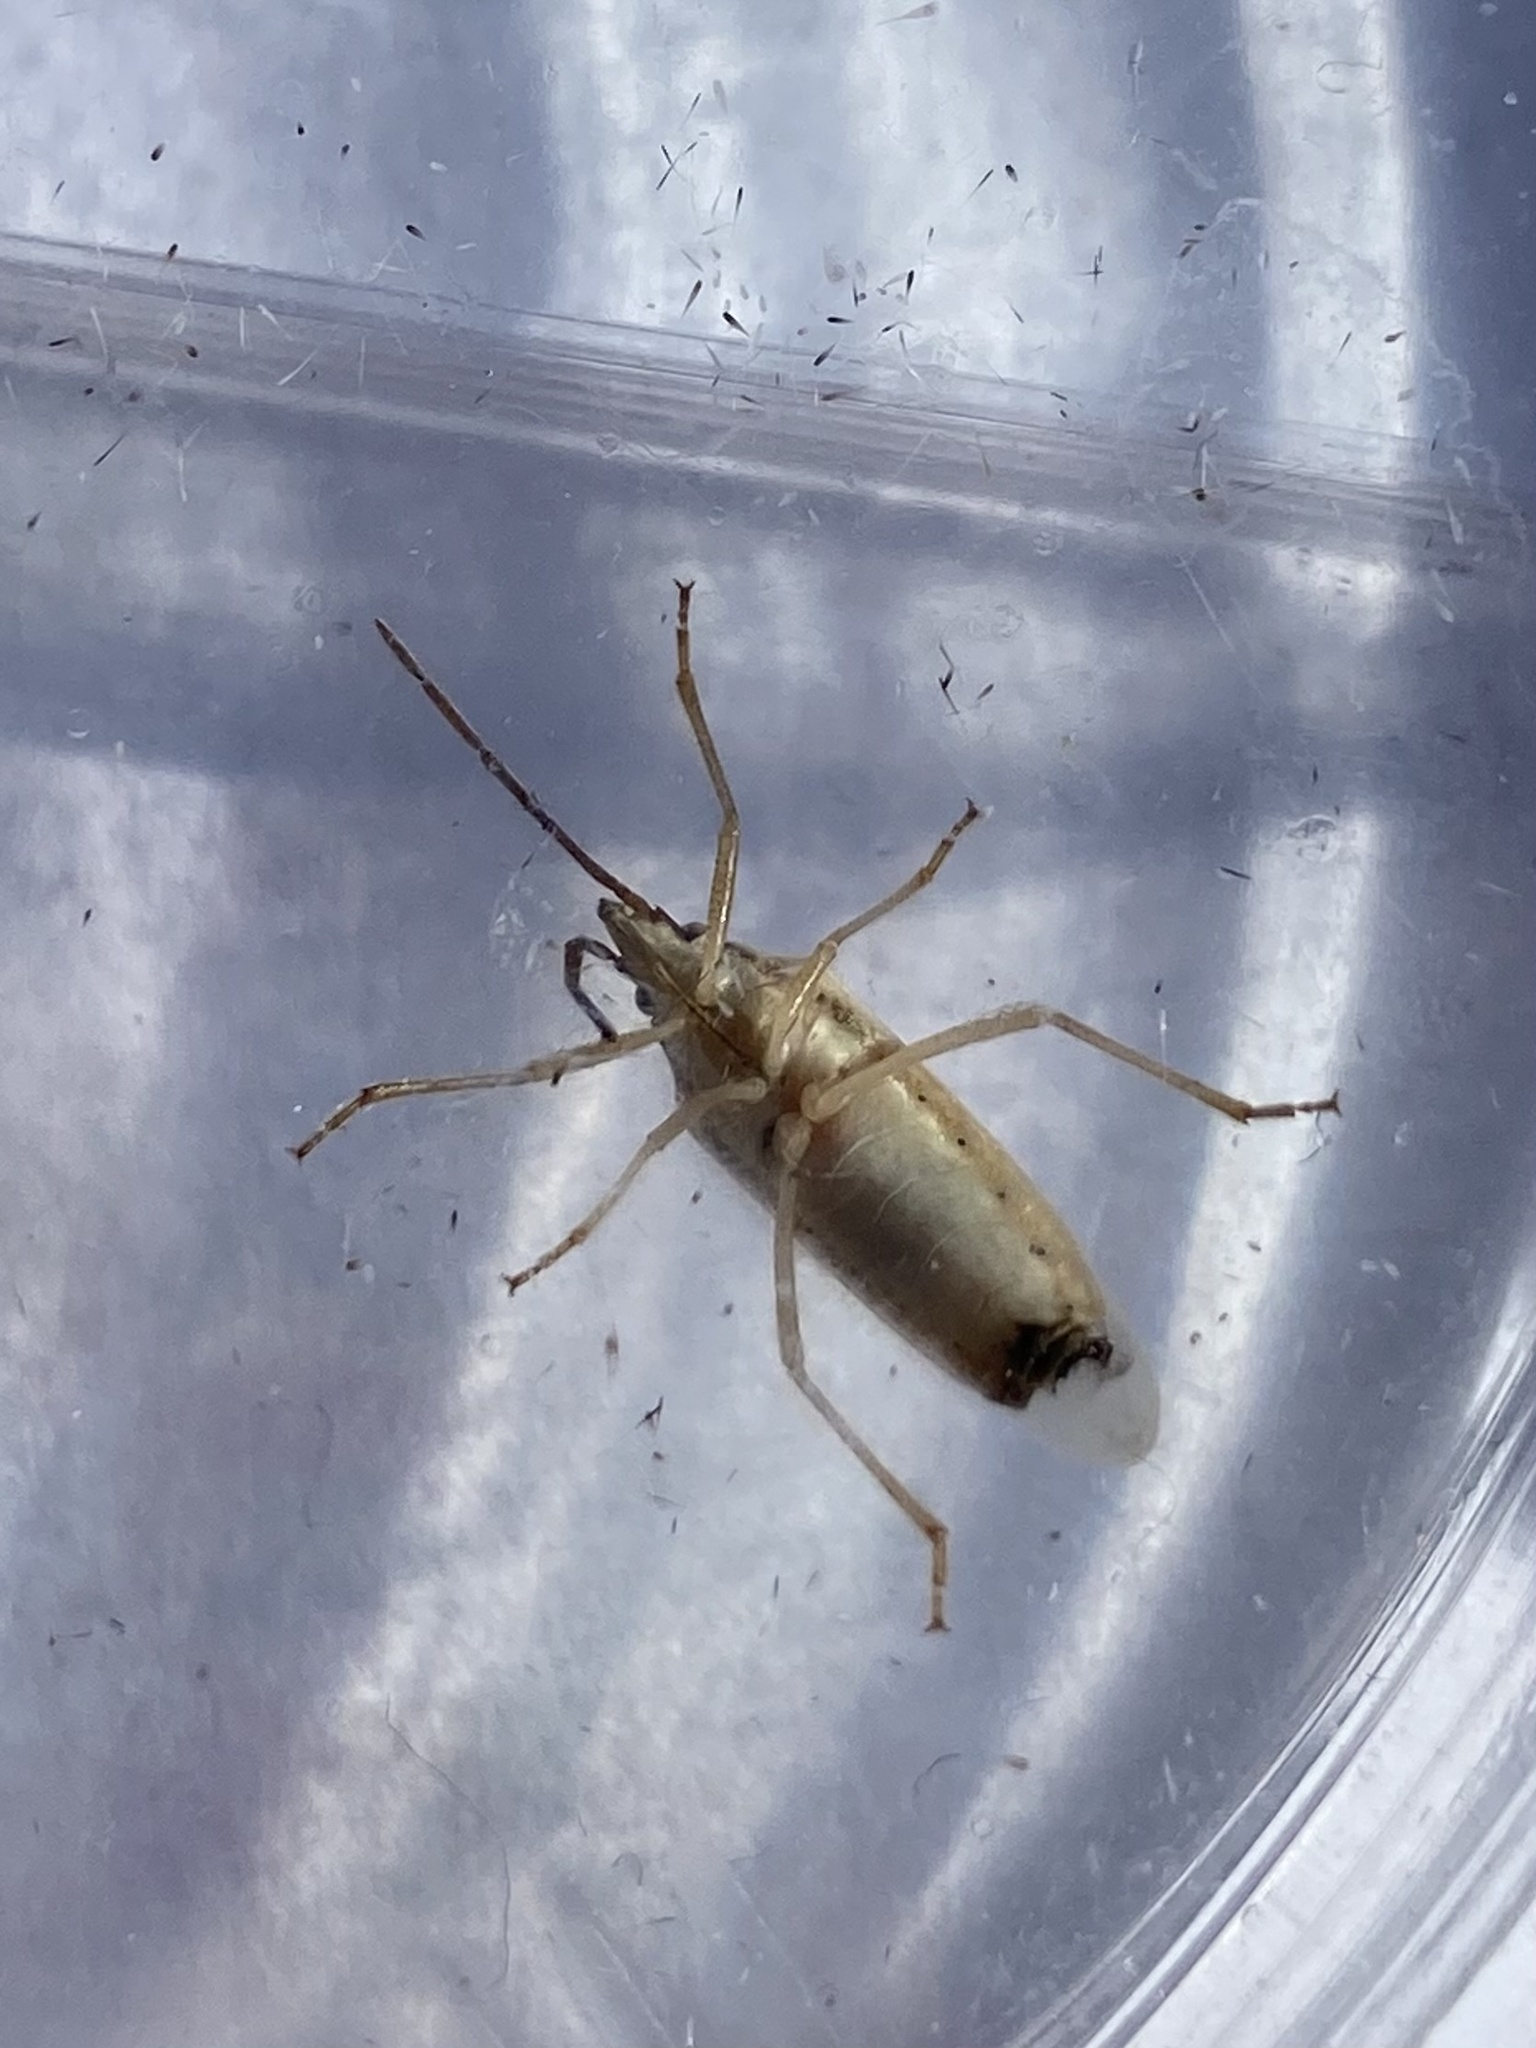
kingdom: Animalia
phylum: Arthropoda
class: Insecta
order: Hemiptera
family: Pentatomidae
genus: Mecidea
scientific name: Mecidea
